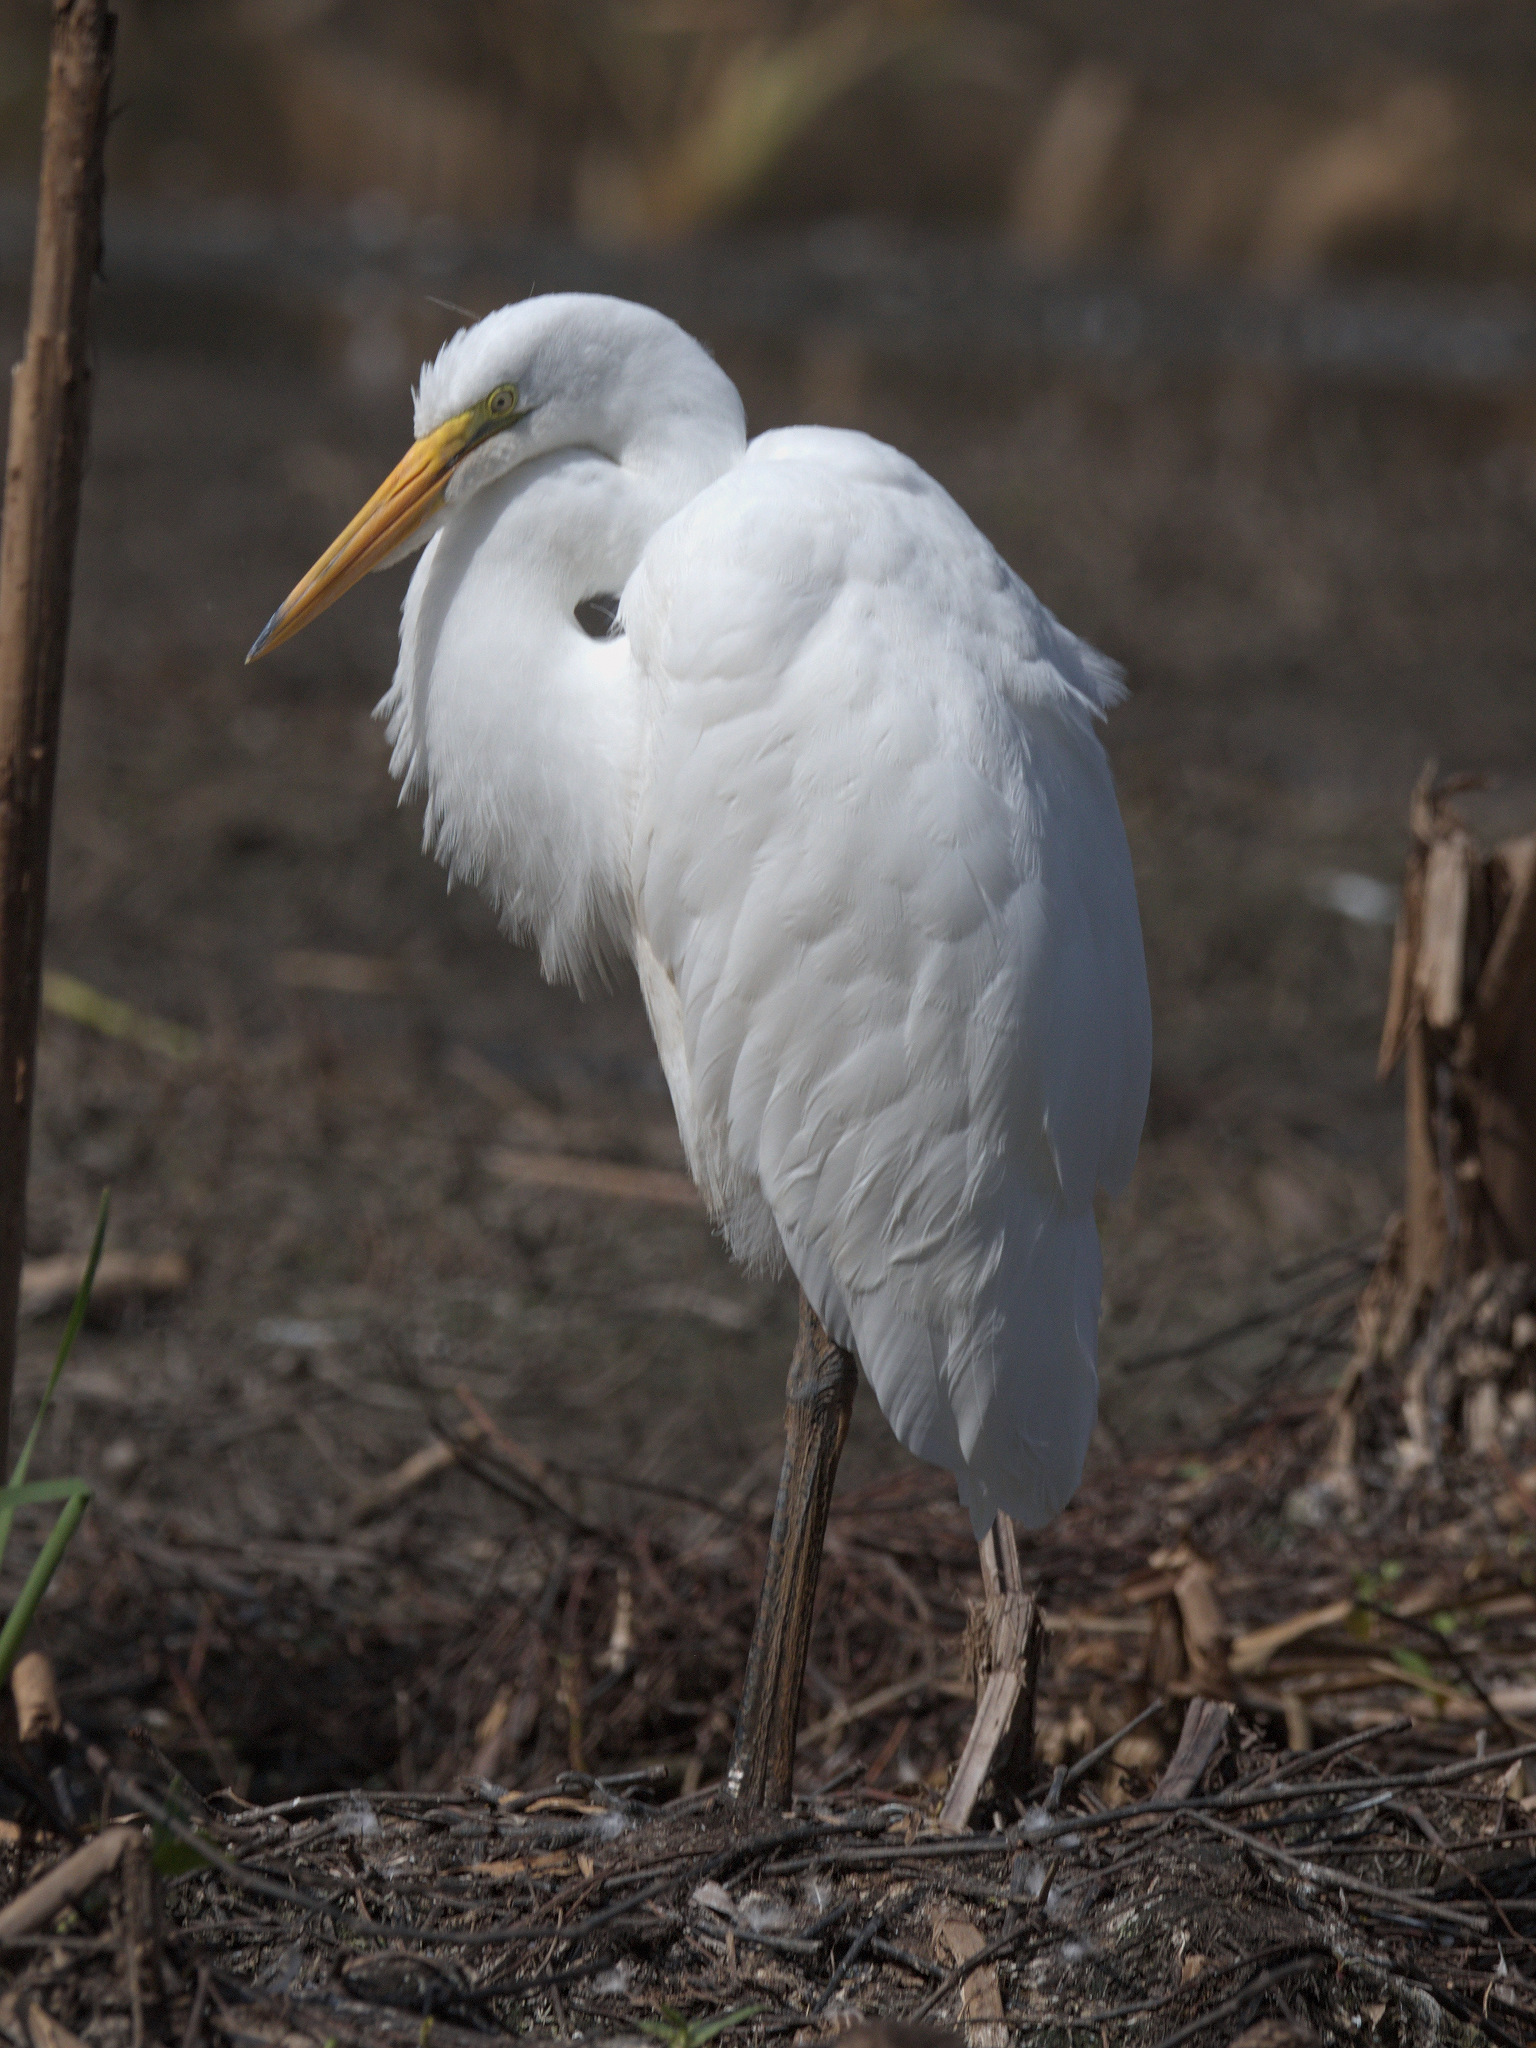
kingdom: Animalia
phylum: Chordata
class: Aves
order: Pelecaniformes
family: Ardeidae
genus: Ardea
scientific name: Ardea alba
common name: Great egret
